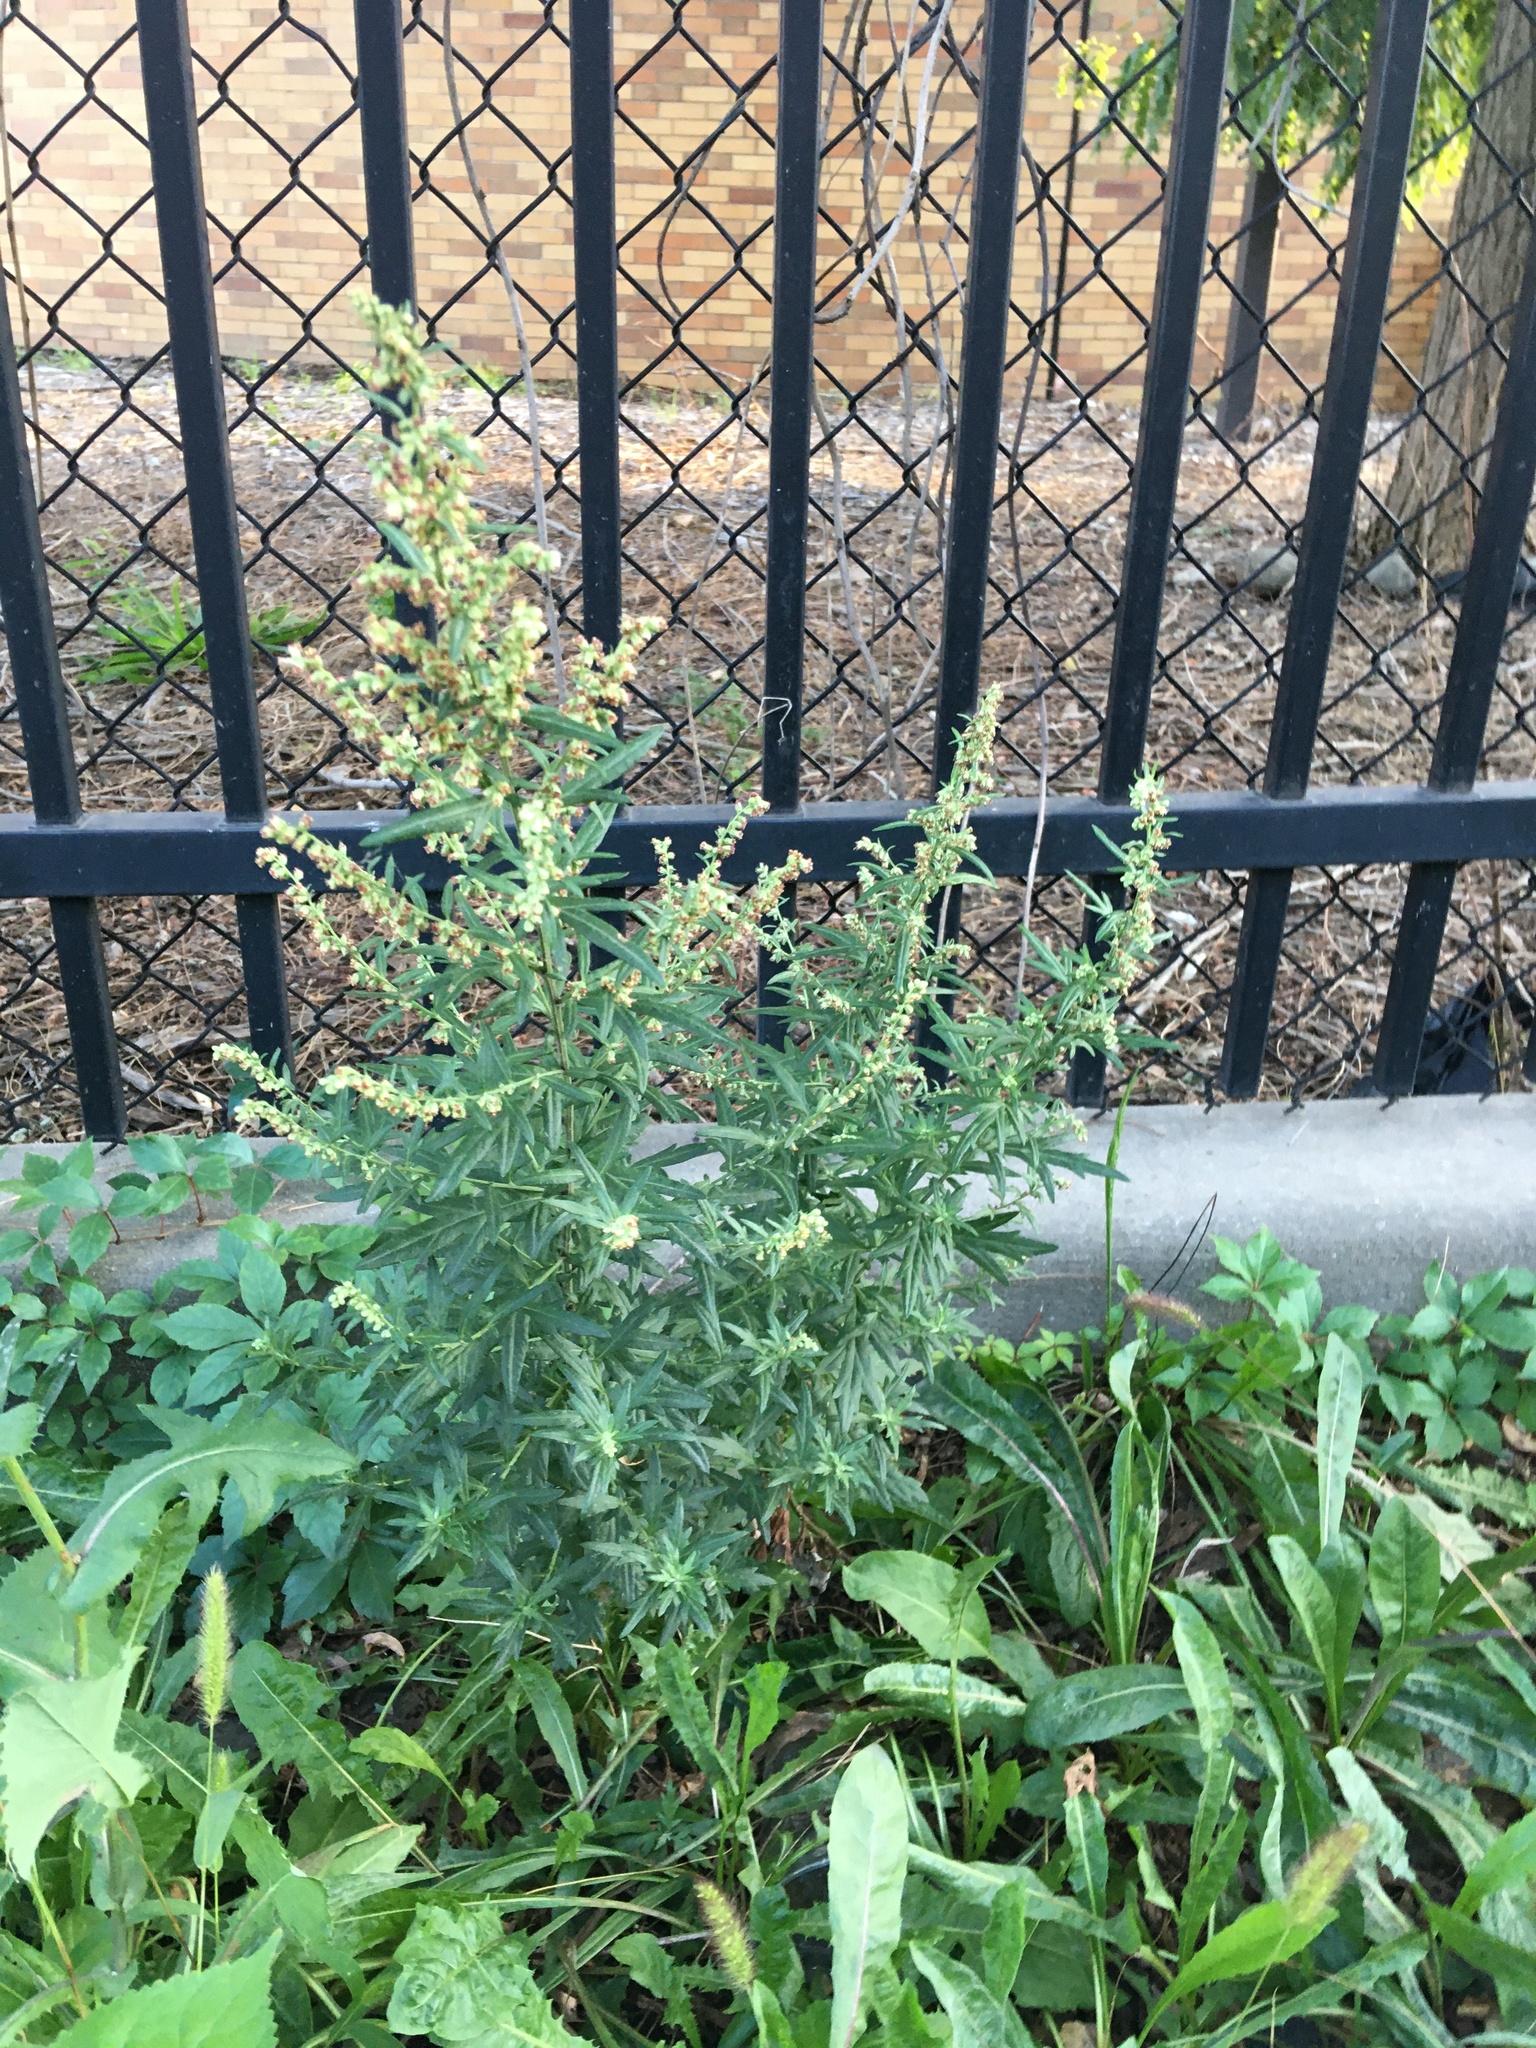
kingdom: Plantae
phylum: Tracheophyta
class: Magnoliopsida
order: Asterales
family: Asteraceae
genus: Artemisia
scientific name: Artemisia vulgaris
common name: Mugwort
